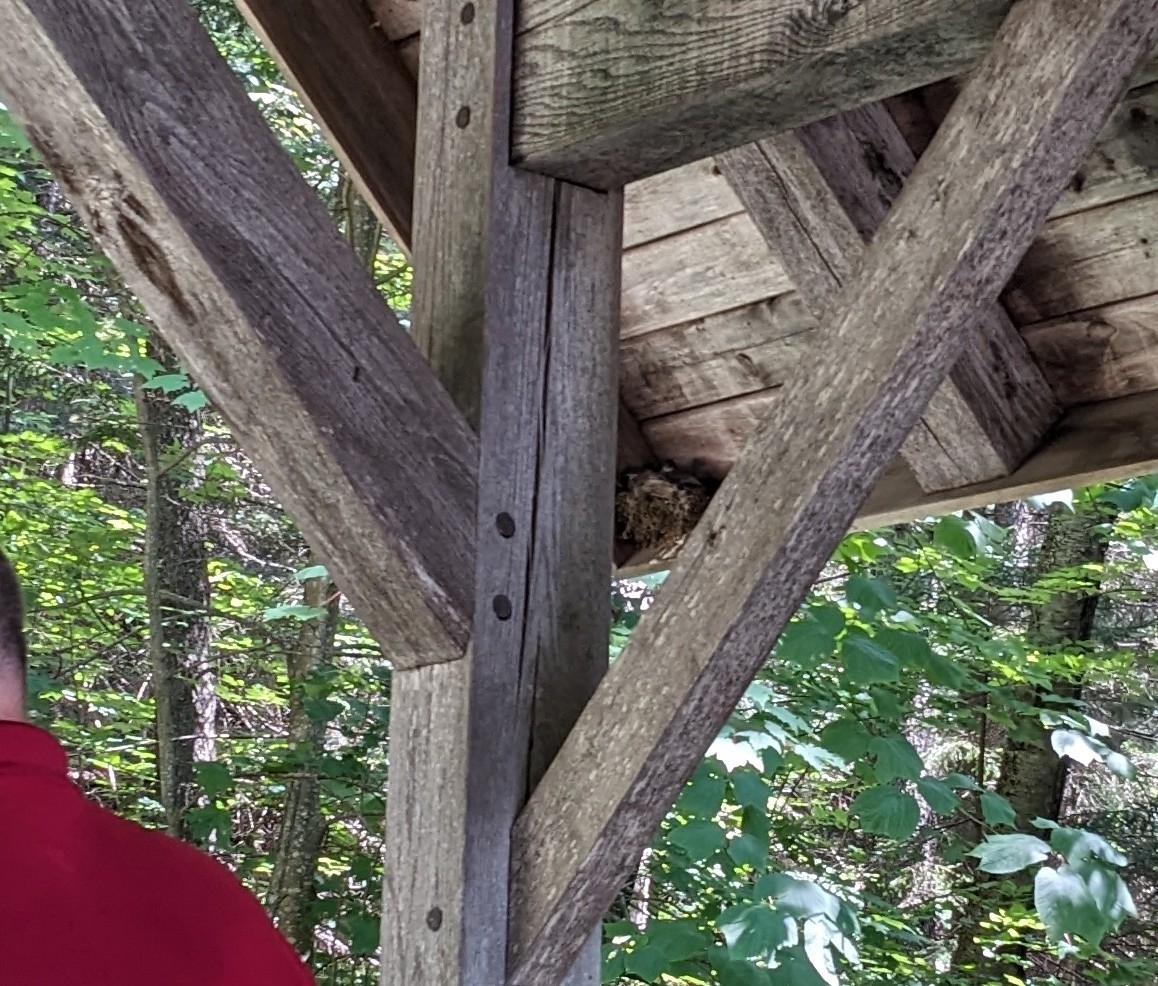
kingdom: Animalia
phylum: Chordata
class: Aves
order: Passeriformes
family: Tyrannidae
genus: Sayornis
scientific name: Sayornis phoebe
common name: Eastern phoebe
